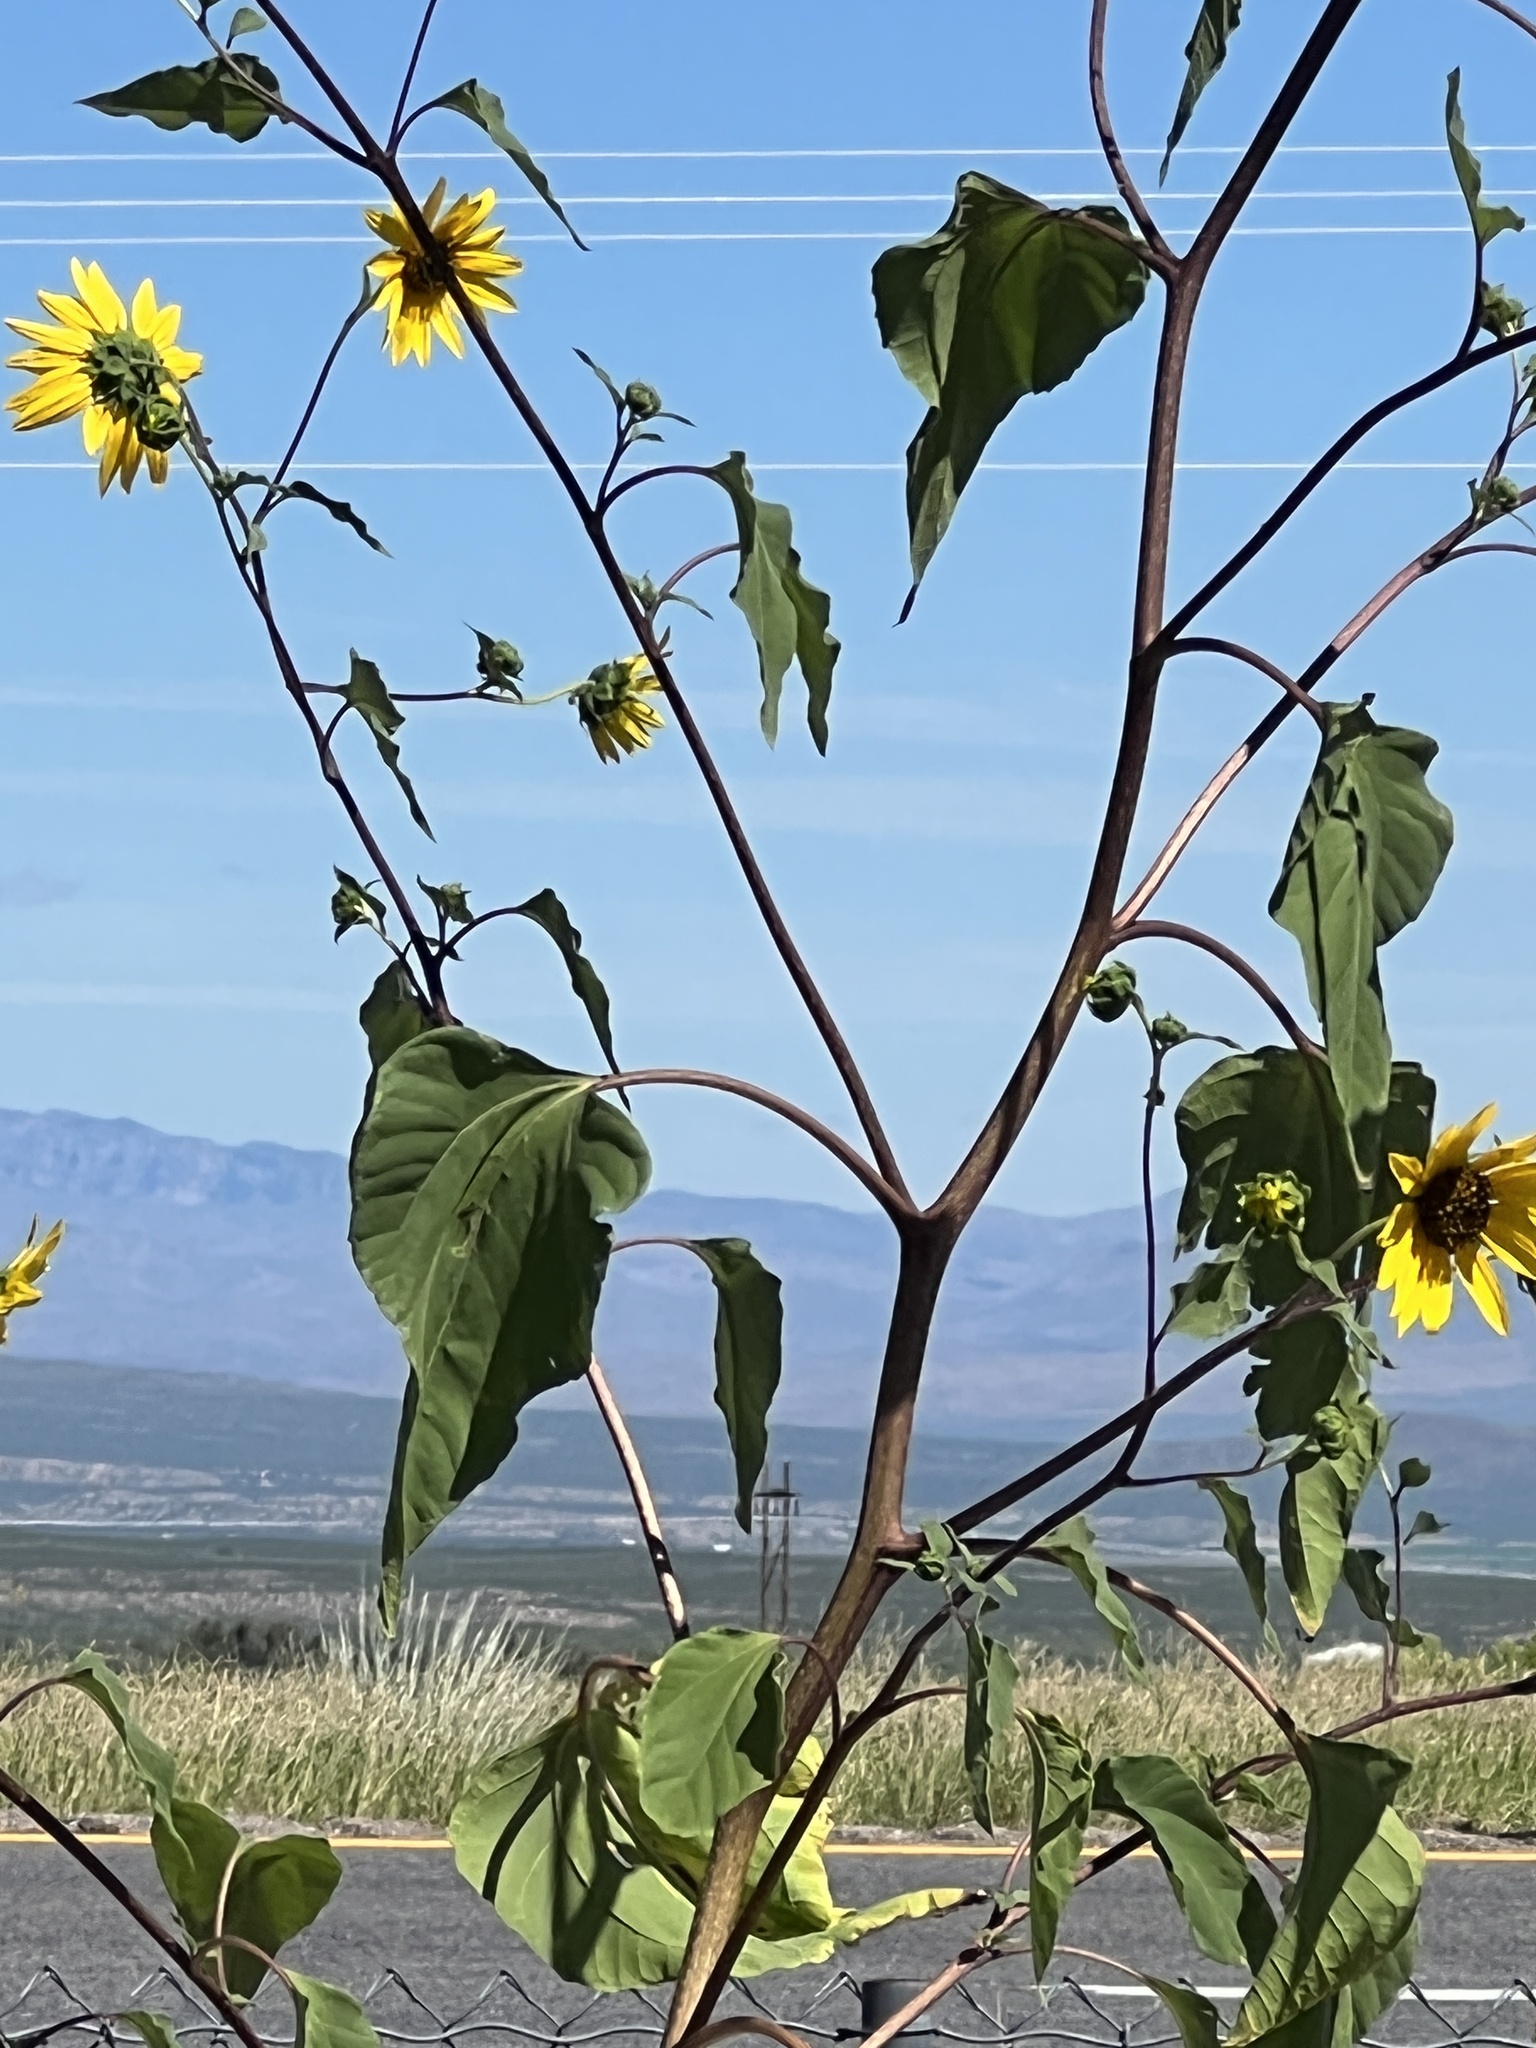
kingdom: Plantae
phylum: Tracheophyta
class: Magnoliopsida
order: Asterales
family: Asteraceae
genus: Helianthus
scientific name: Helianthus annuus
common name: Sunflower
